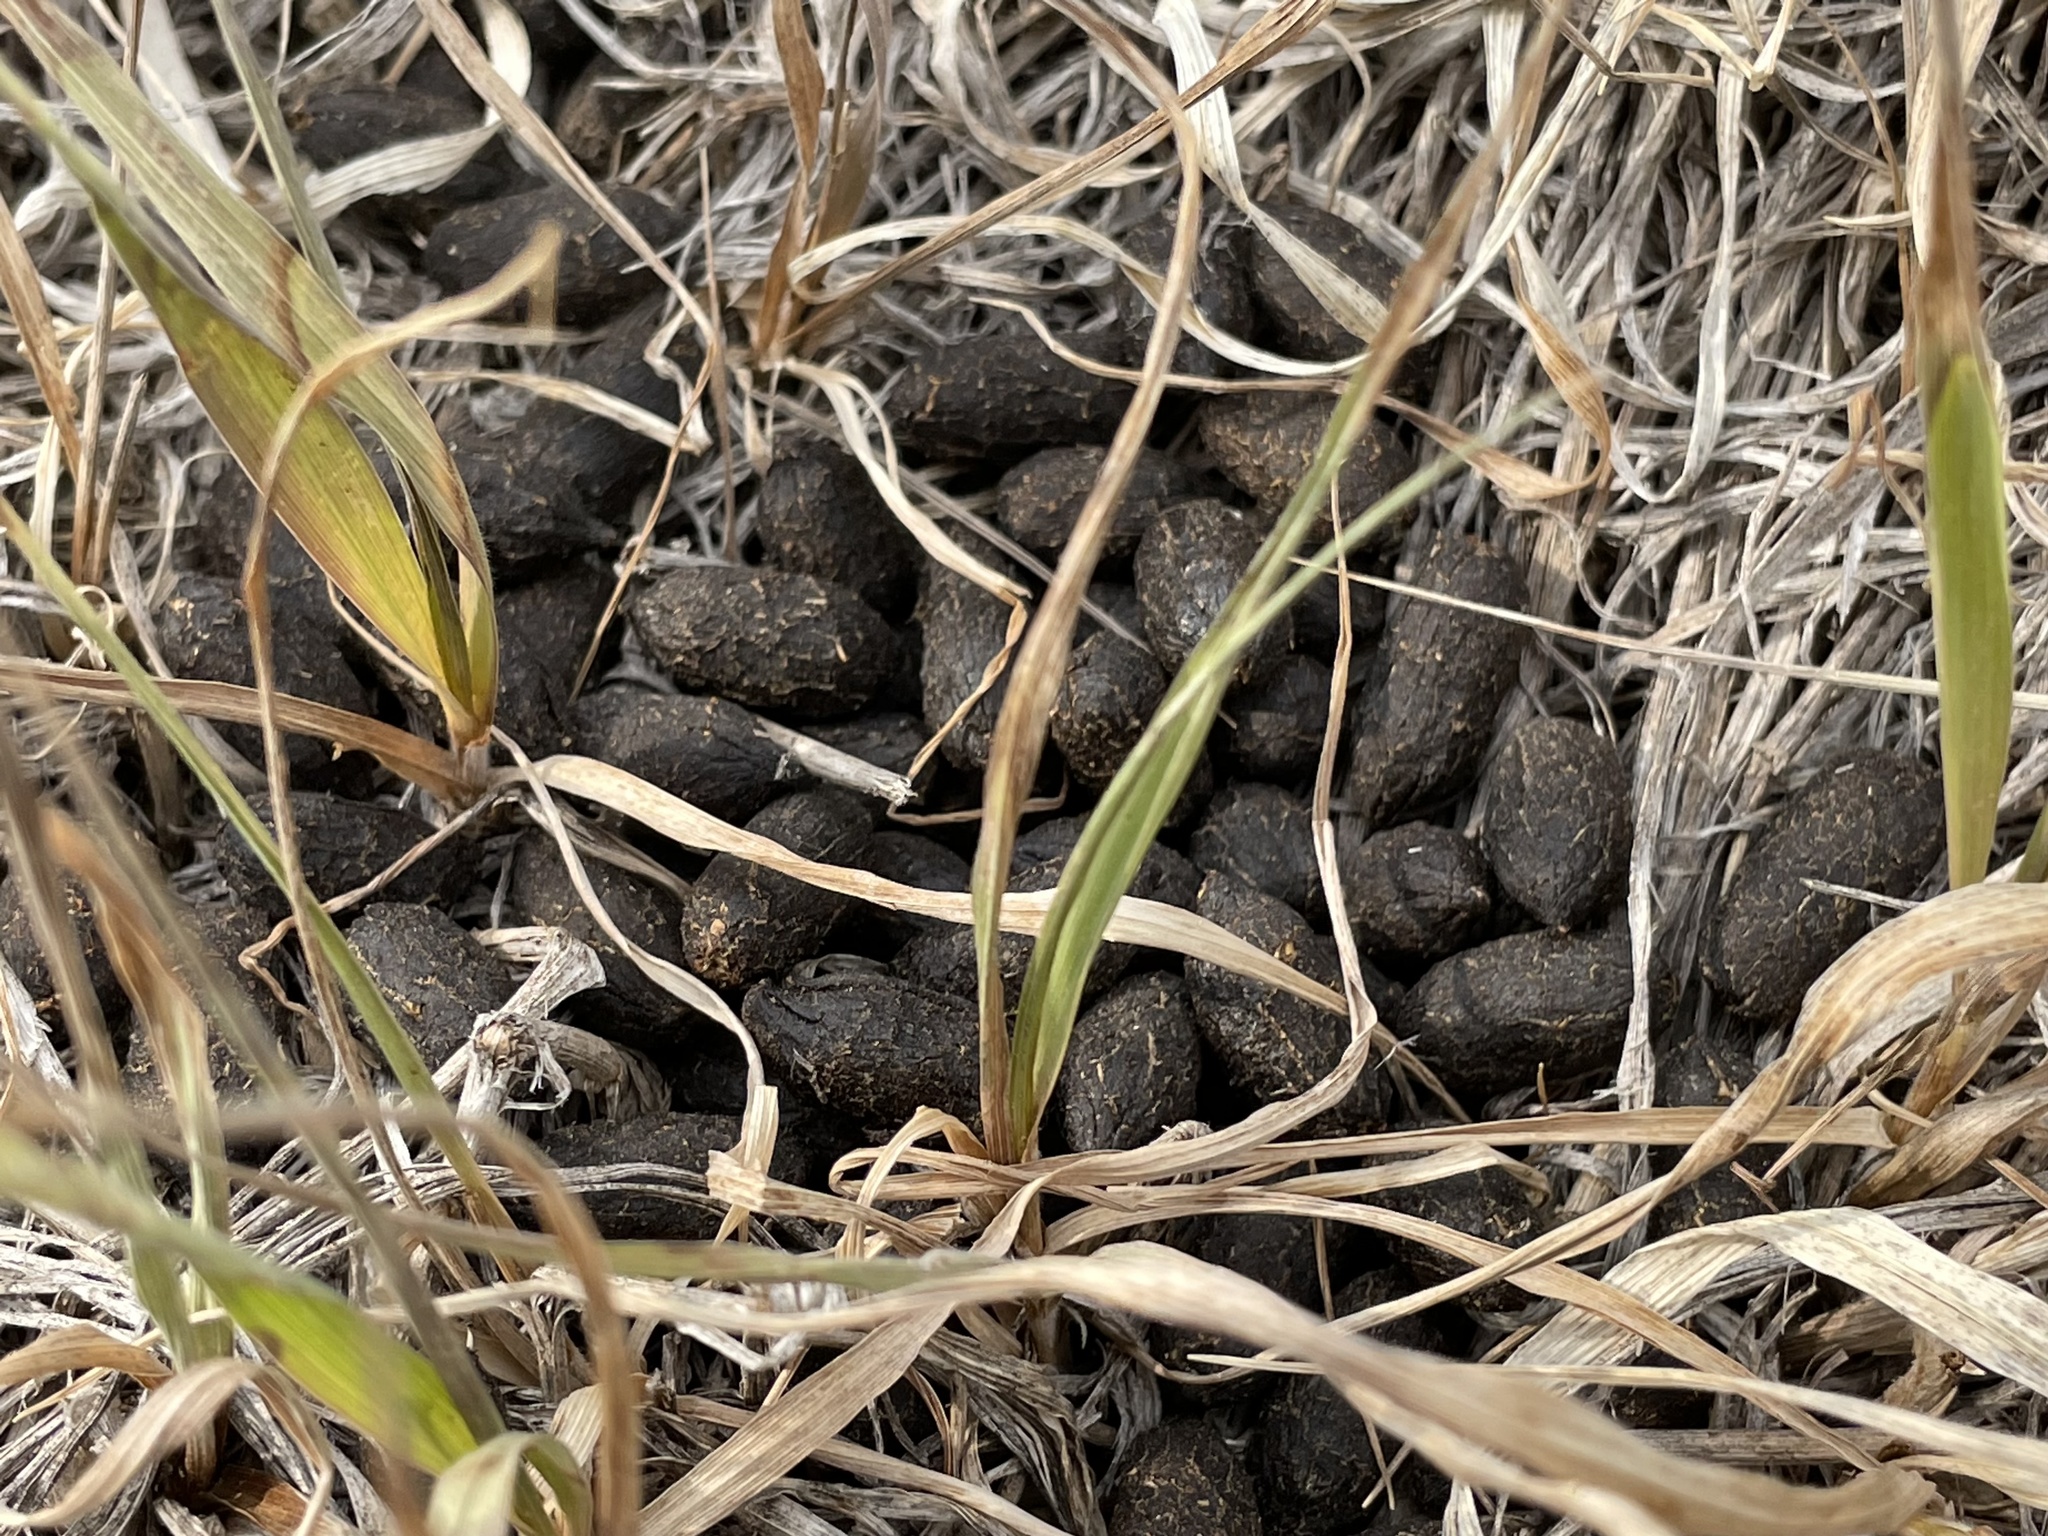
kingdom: Animalia
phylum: Chordata
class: Mammalia
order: Artiodactyla
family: Cervidae
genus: Odocoileus
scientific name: Odocoileus hemionus
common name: Mule deer
